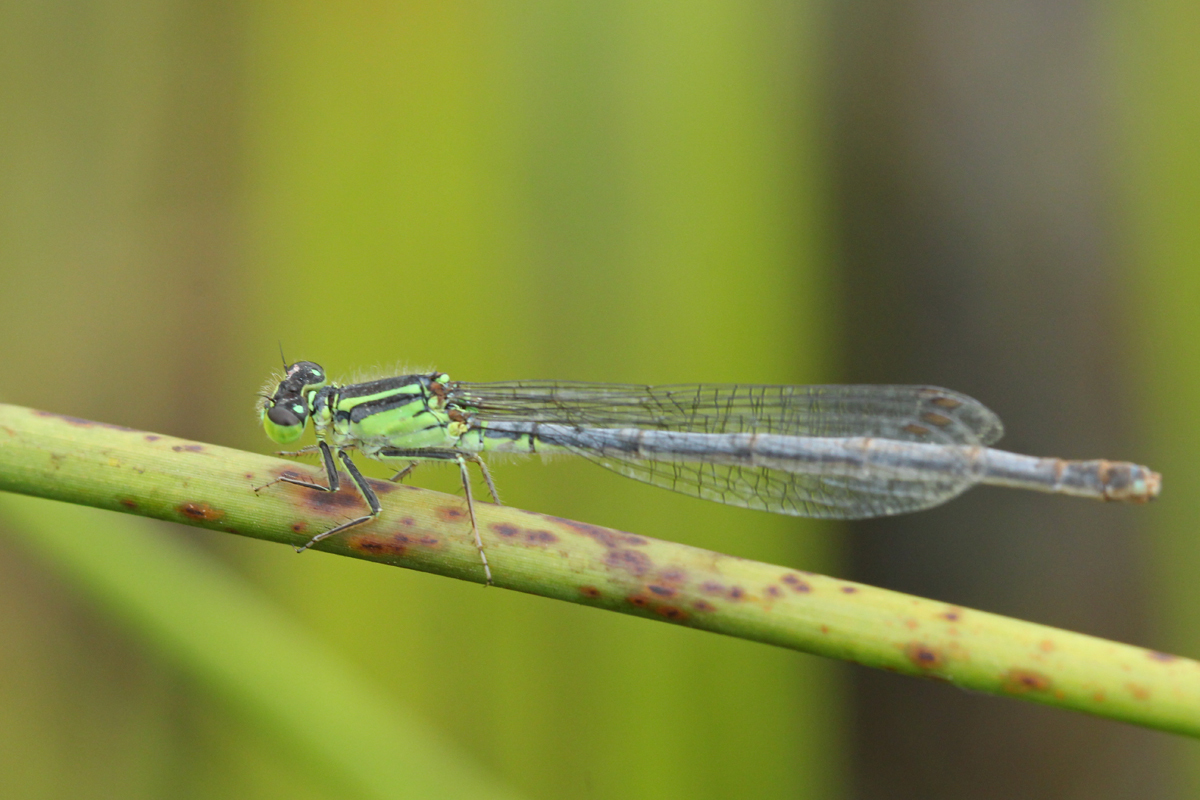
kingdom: Animalia
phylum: Arthropoda
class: Insecta
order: Odonata
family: Coenagrionidae
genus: Ischnura
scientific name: Ischnura verticalis
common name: Eastern forktail
